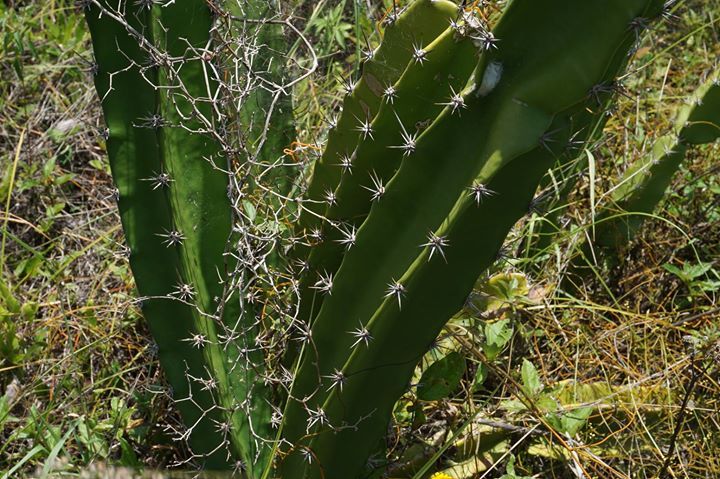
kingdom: Plantae
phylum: Tracheophyta
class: Magnoliopsida
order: Caryophyllales
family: Cactaceae
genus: Acanthocereus
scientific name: Acanthocereus tetragonus
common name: Triangle cactus
